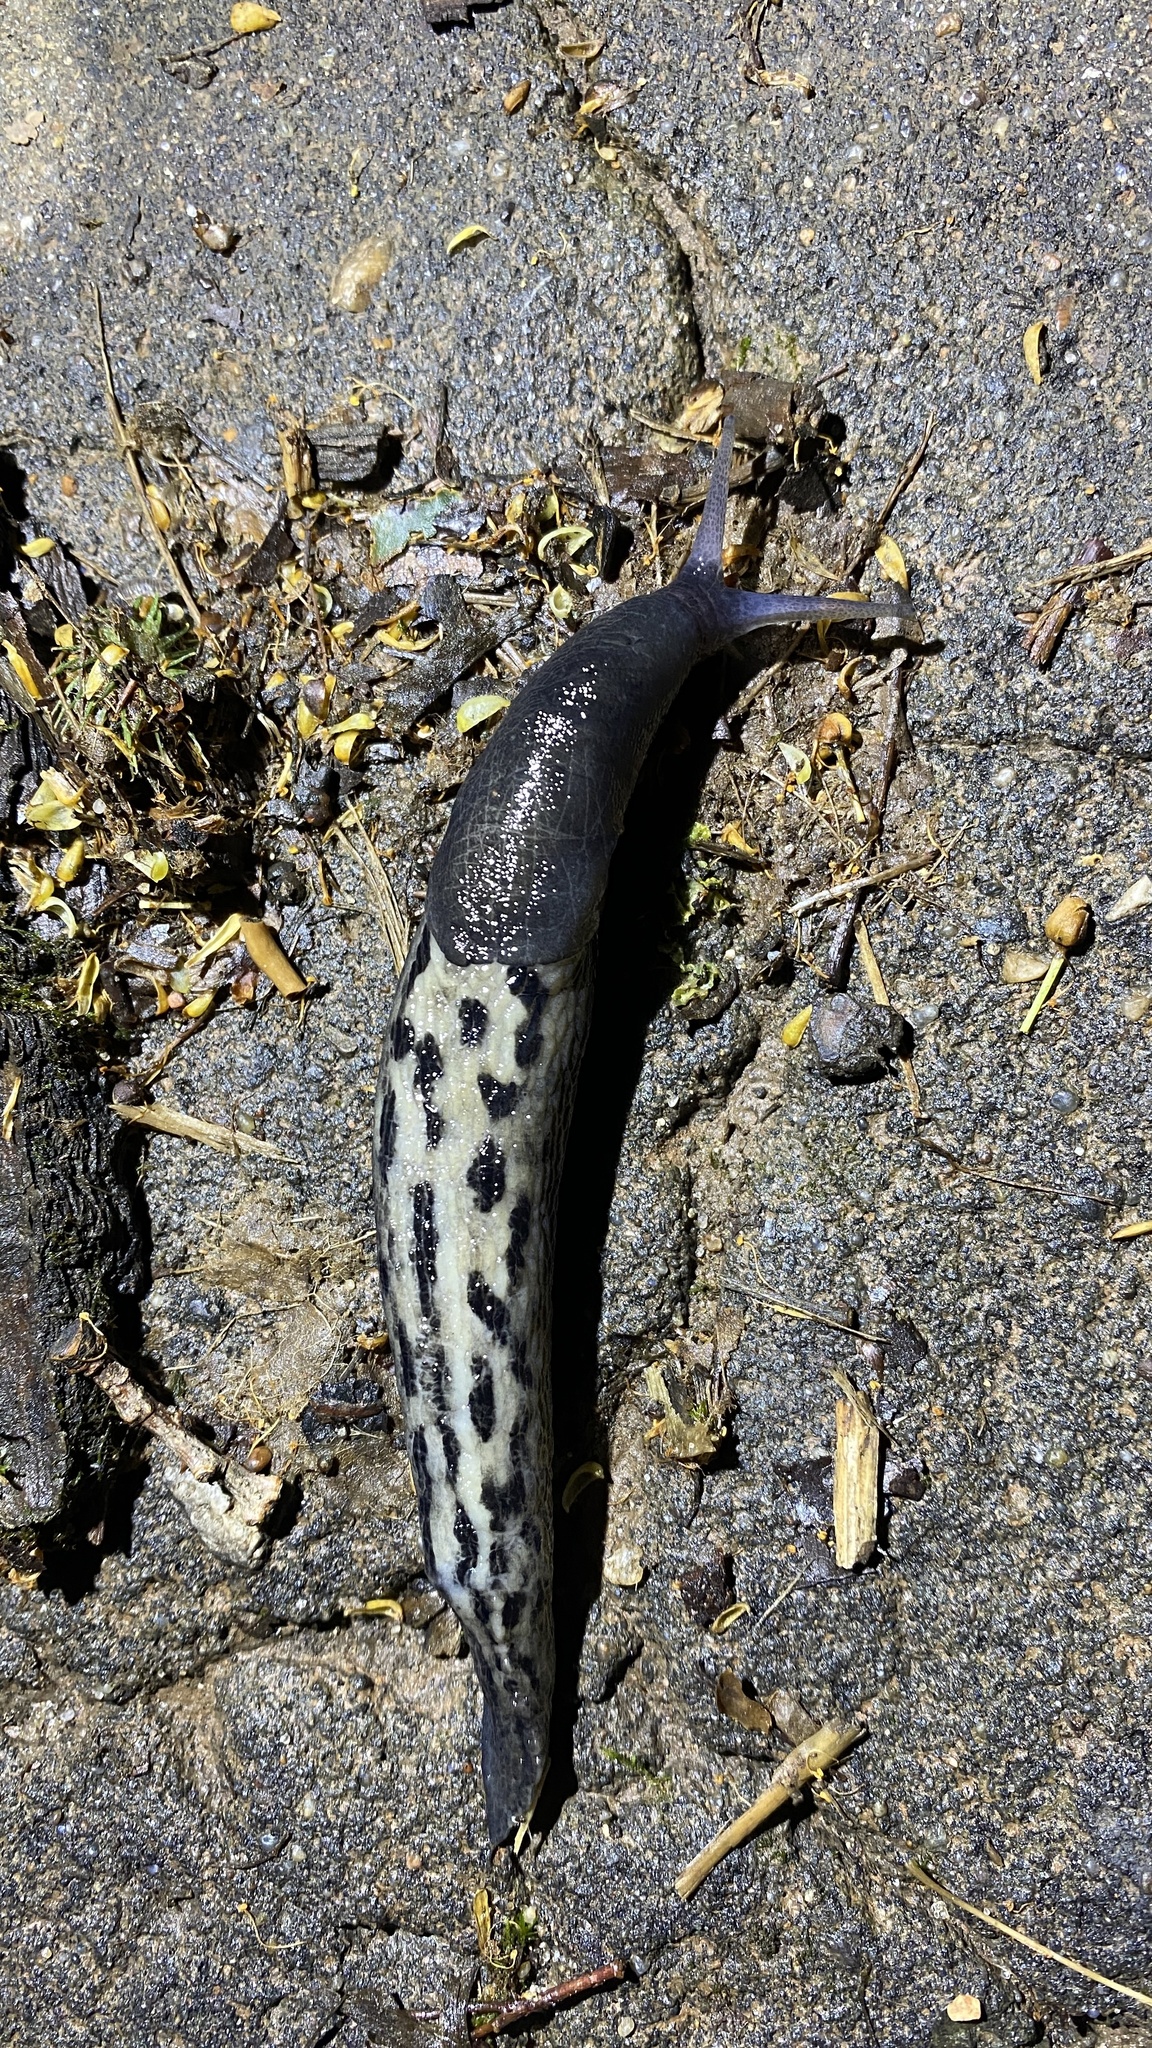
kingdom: Animalia
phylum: Mollusca
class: Gastropoda
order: Stylommatophora
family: Limacidae
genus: Limax
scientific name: Limax cinereoniger
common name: Ash-black slug
